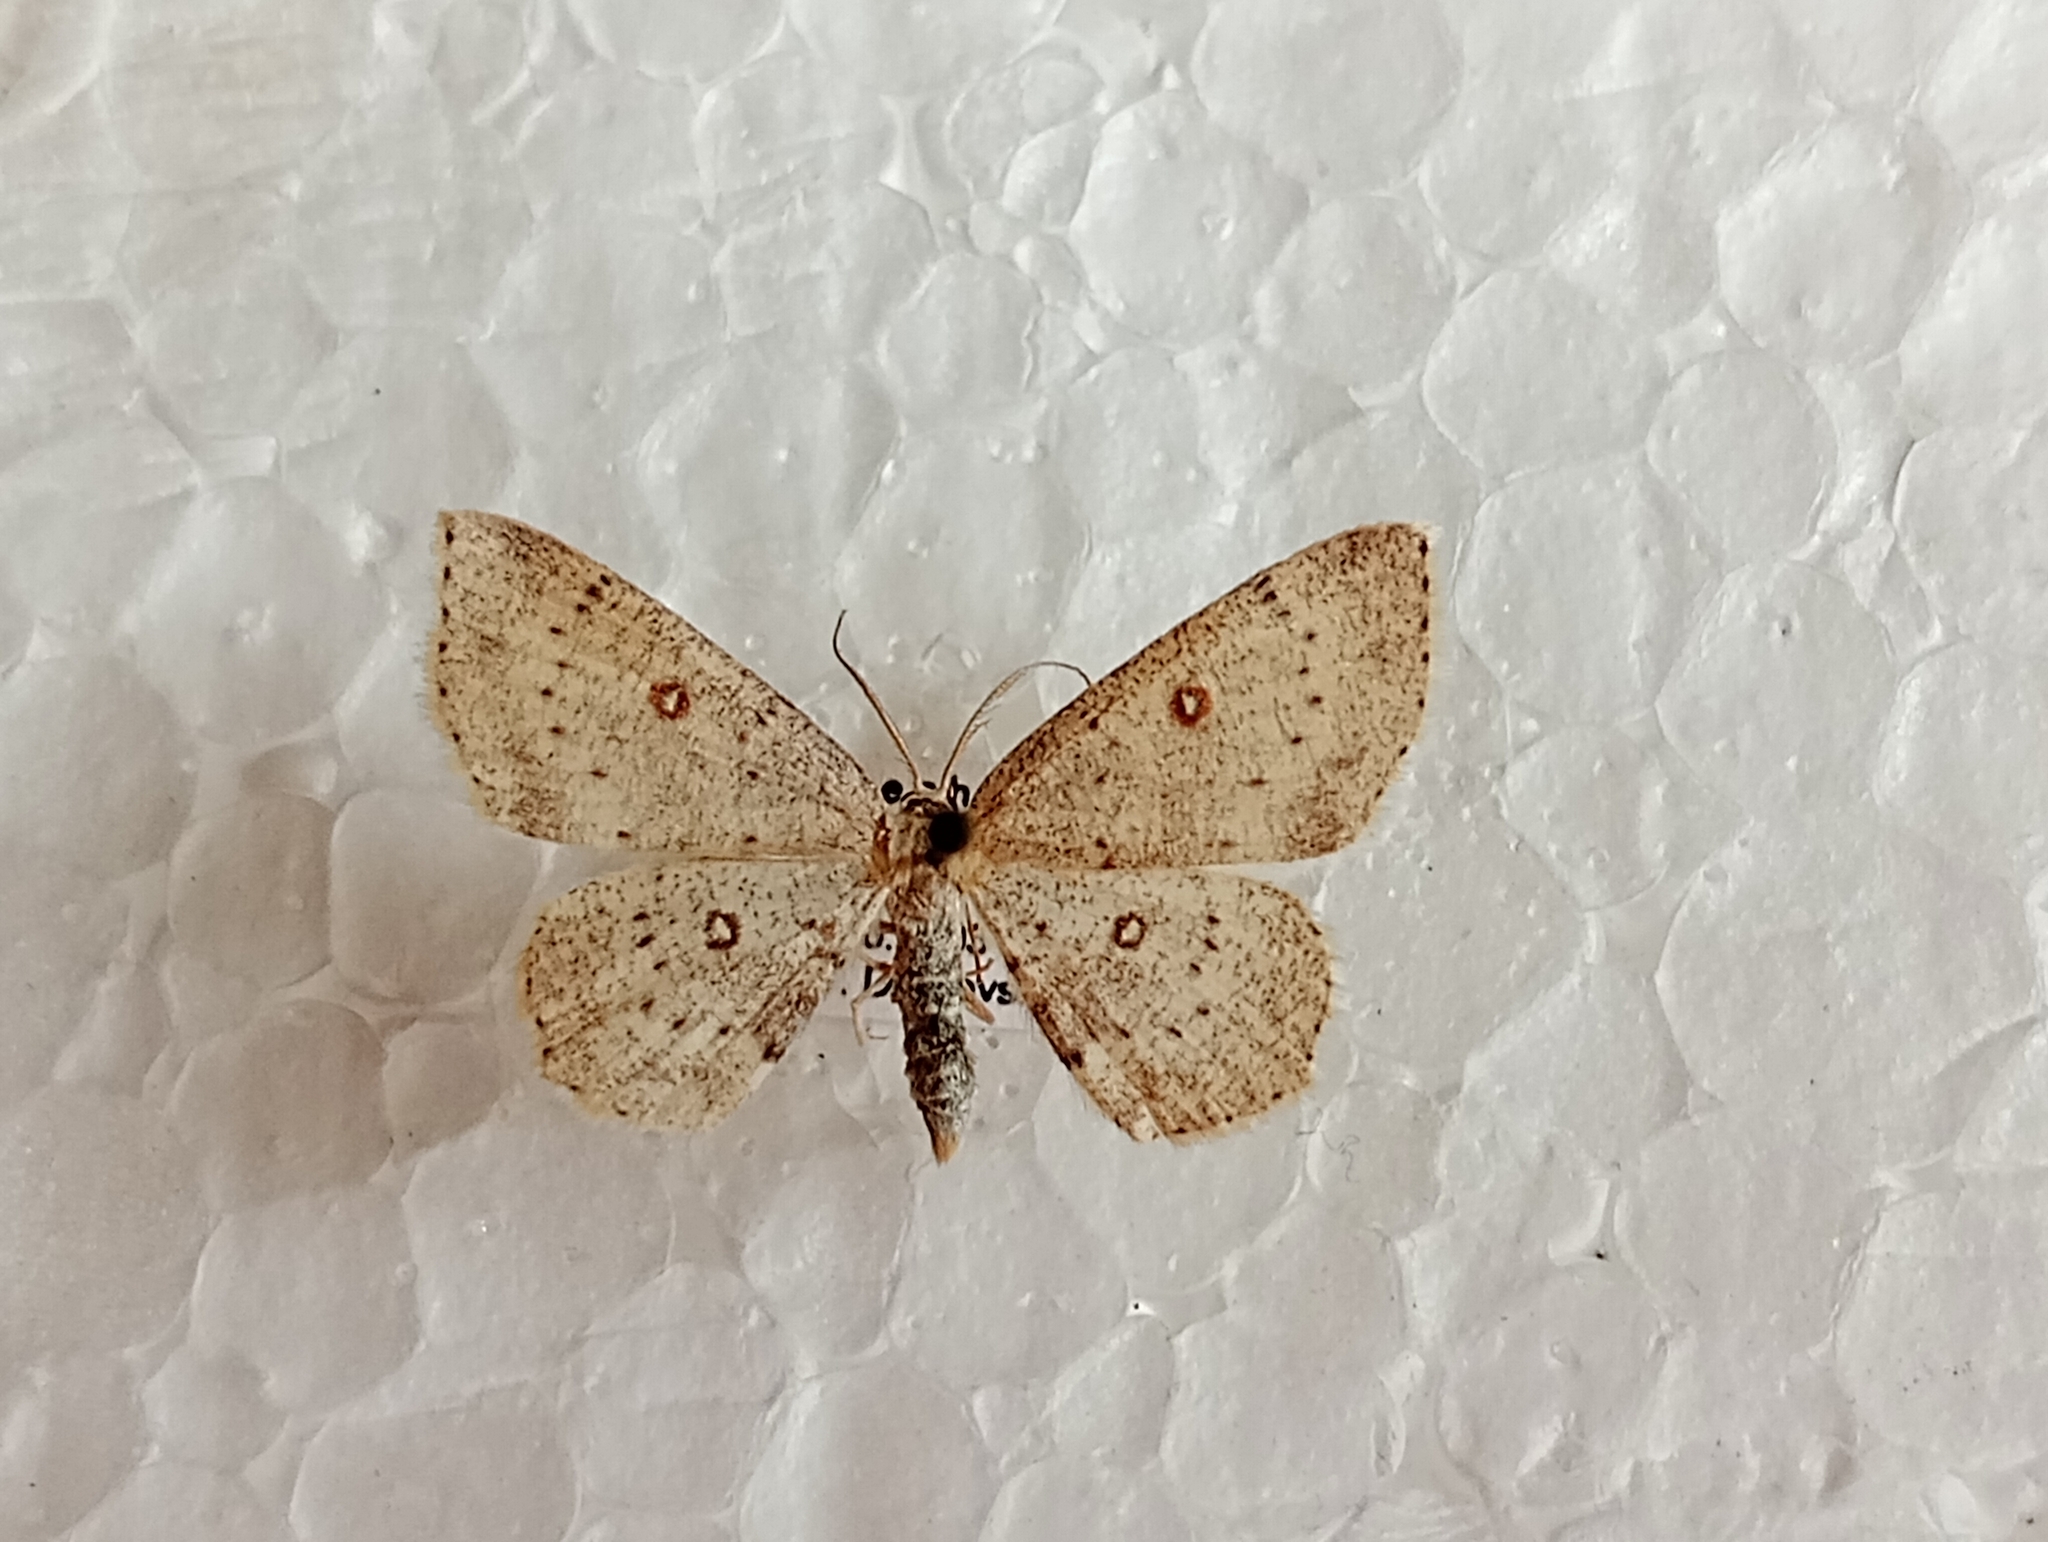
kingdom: Animalia
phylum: Arthropoda
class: Insecta
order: Lepidoptera
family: Geometridae
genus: Cyclophora
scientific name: Cyclophora albipunctata
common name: Birch mocha
